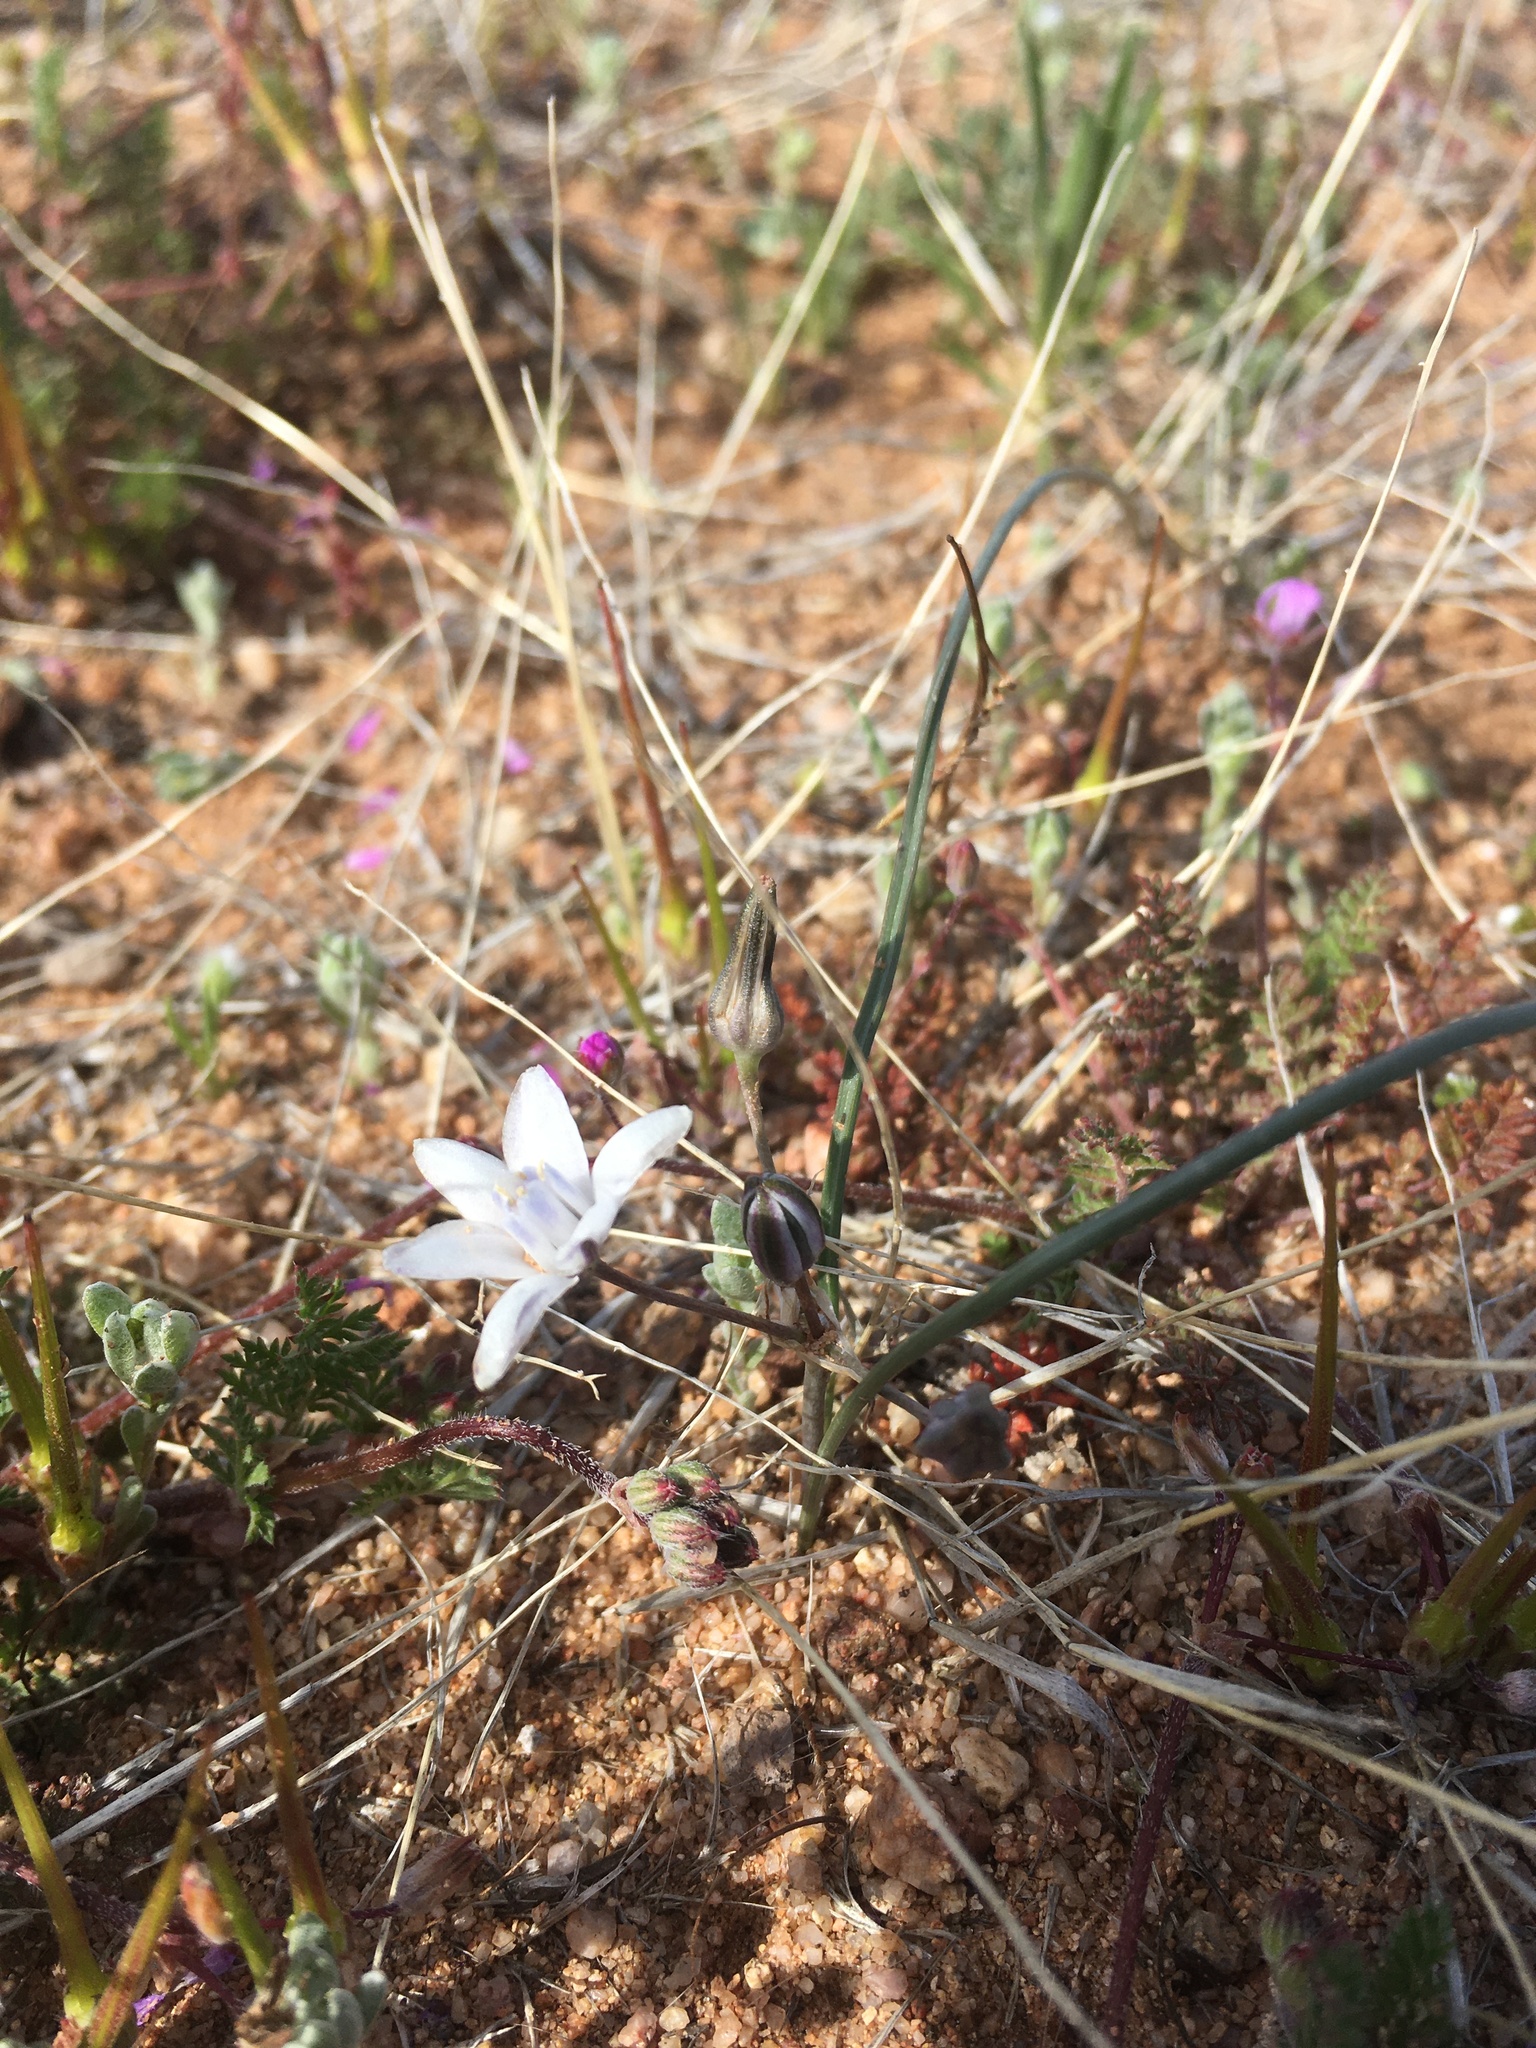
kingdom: Plantae
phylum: Tracheophyta
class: Liliopsida
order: Asparagales
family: Asparagaceae
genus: Muilla
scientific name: Muilla lordsburgana
